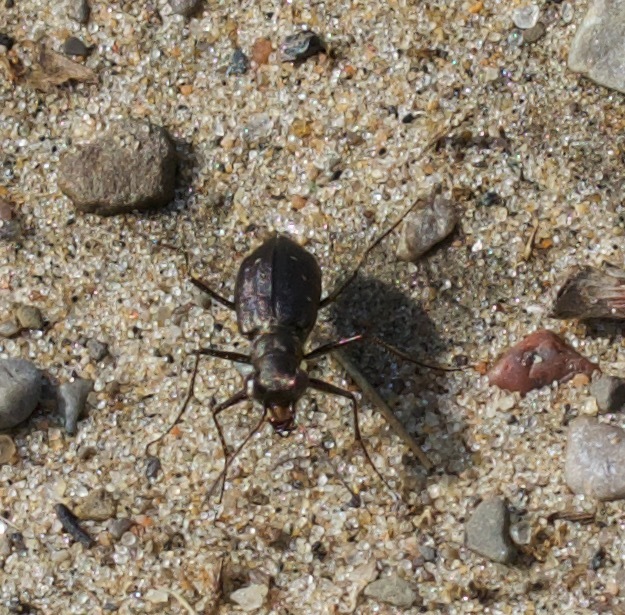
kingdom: Animalia
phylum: Arthropoda
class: Insecta
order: Coleoptera
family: Carabidae
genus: Cicindela
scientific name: Cicindela punctulata
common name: Punctured tiger beetle
